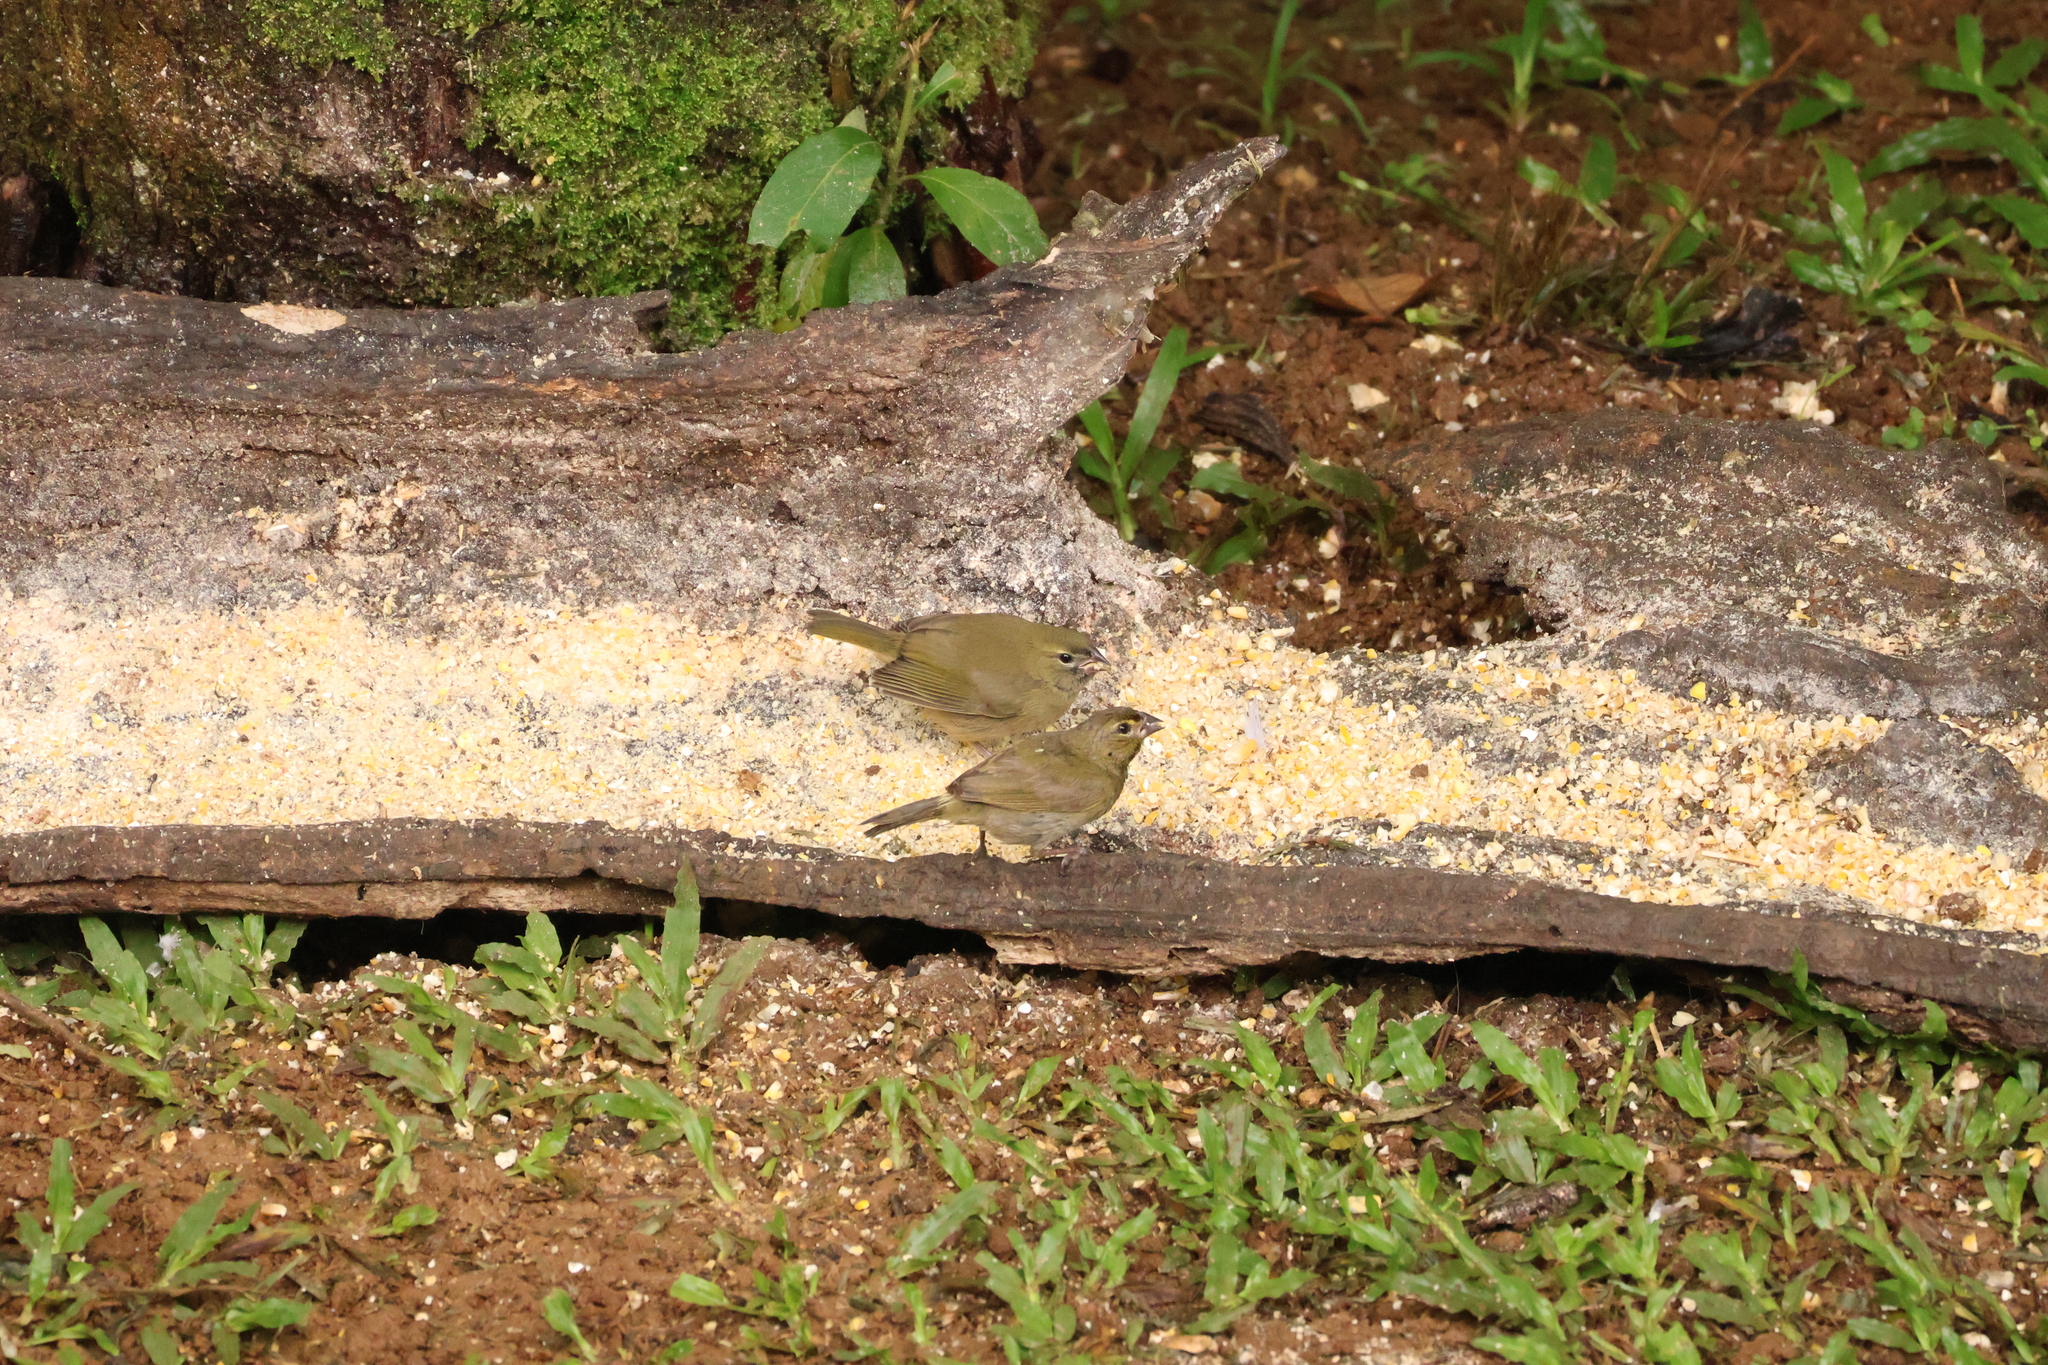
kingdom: Animalia
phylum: Chordata
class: Aves
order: Passeriformes
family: Thraupidae
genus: Tiaris
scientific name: Tiaris olivaceus
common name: Yellow-faced grassquit
